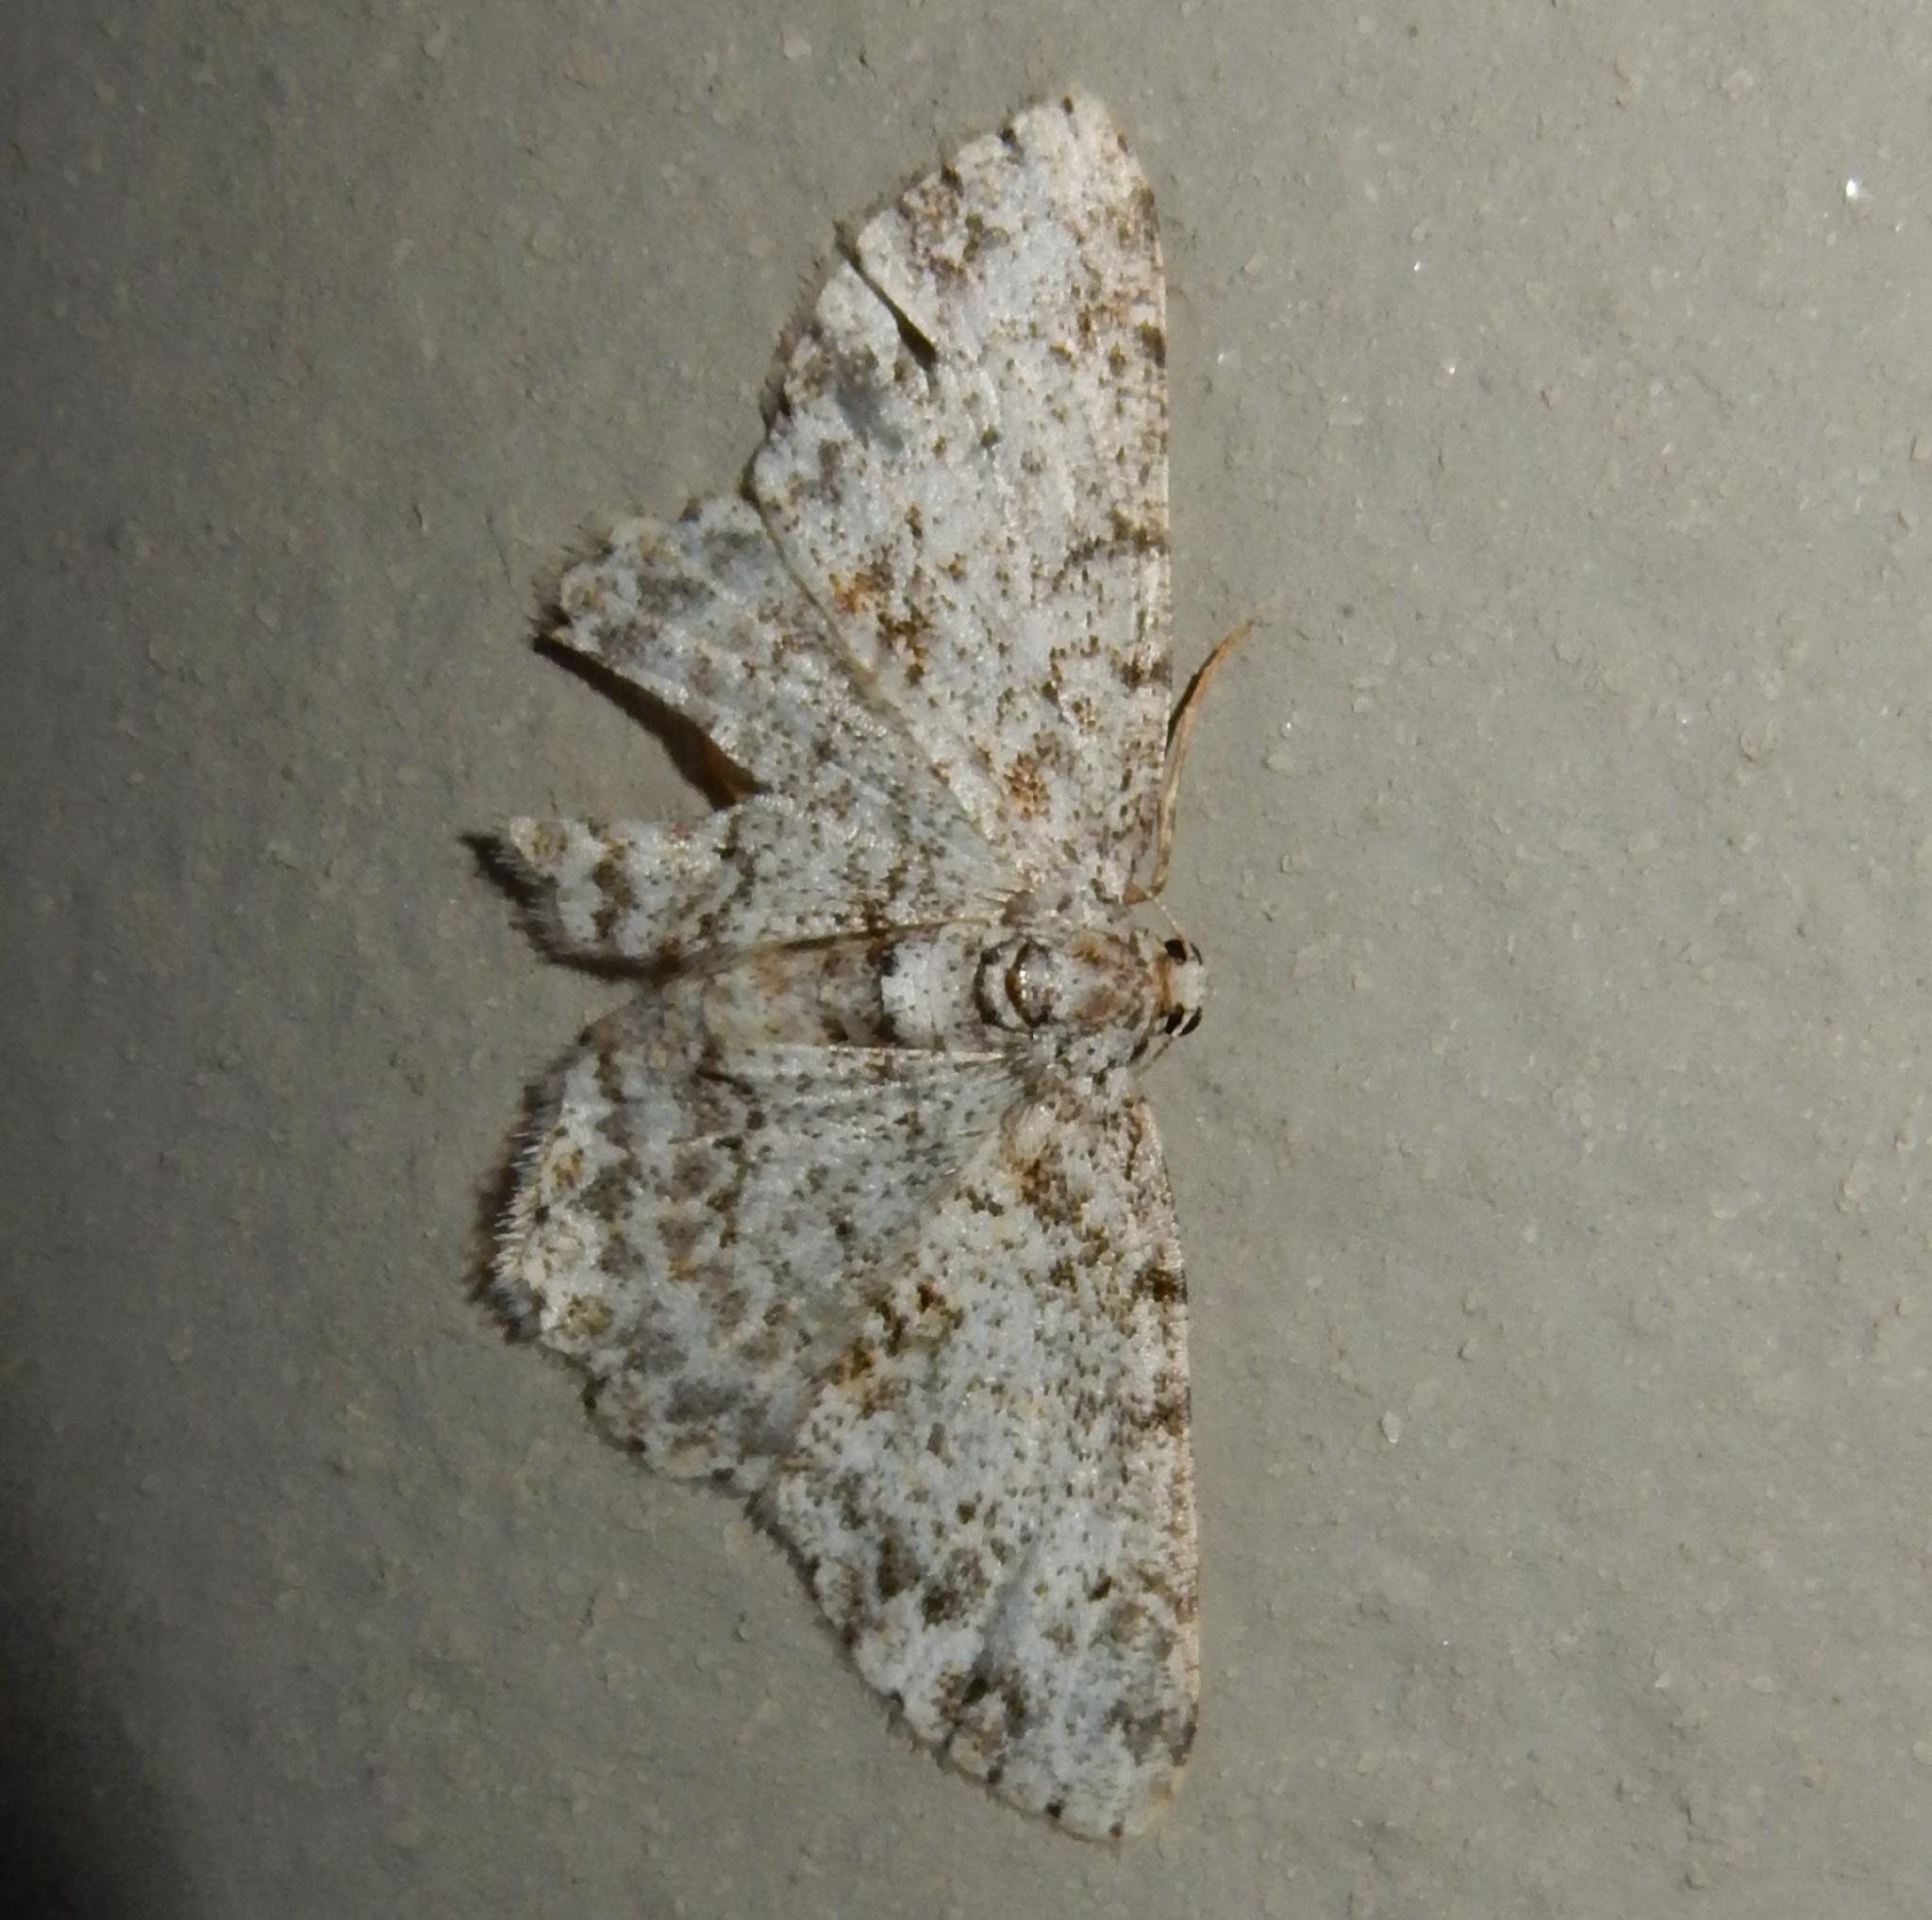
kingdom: Animalia
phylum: Arthropoda
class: Insecta
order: Lepidoptera
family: Geometridae
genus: Ectropis
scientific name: Ectropis spoliataria
